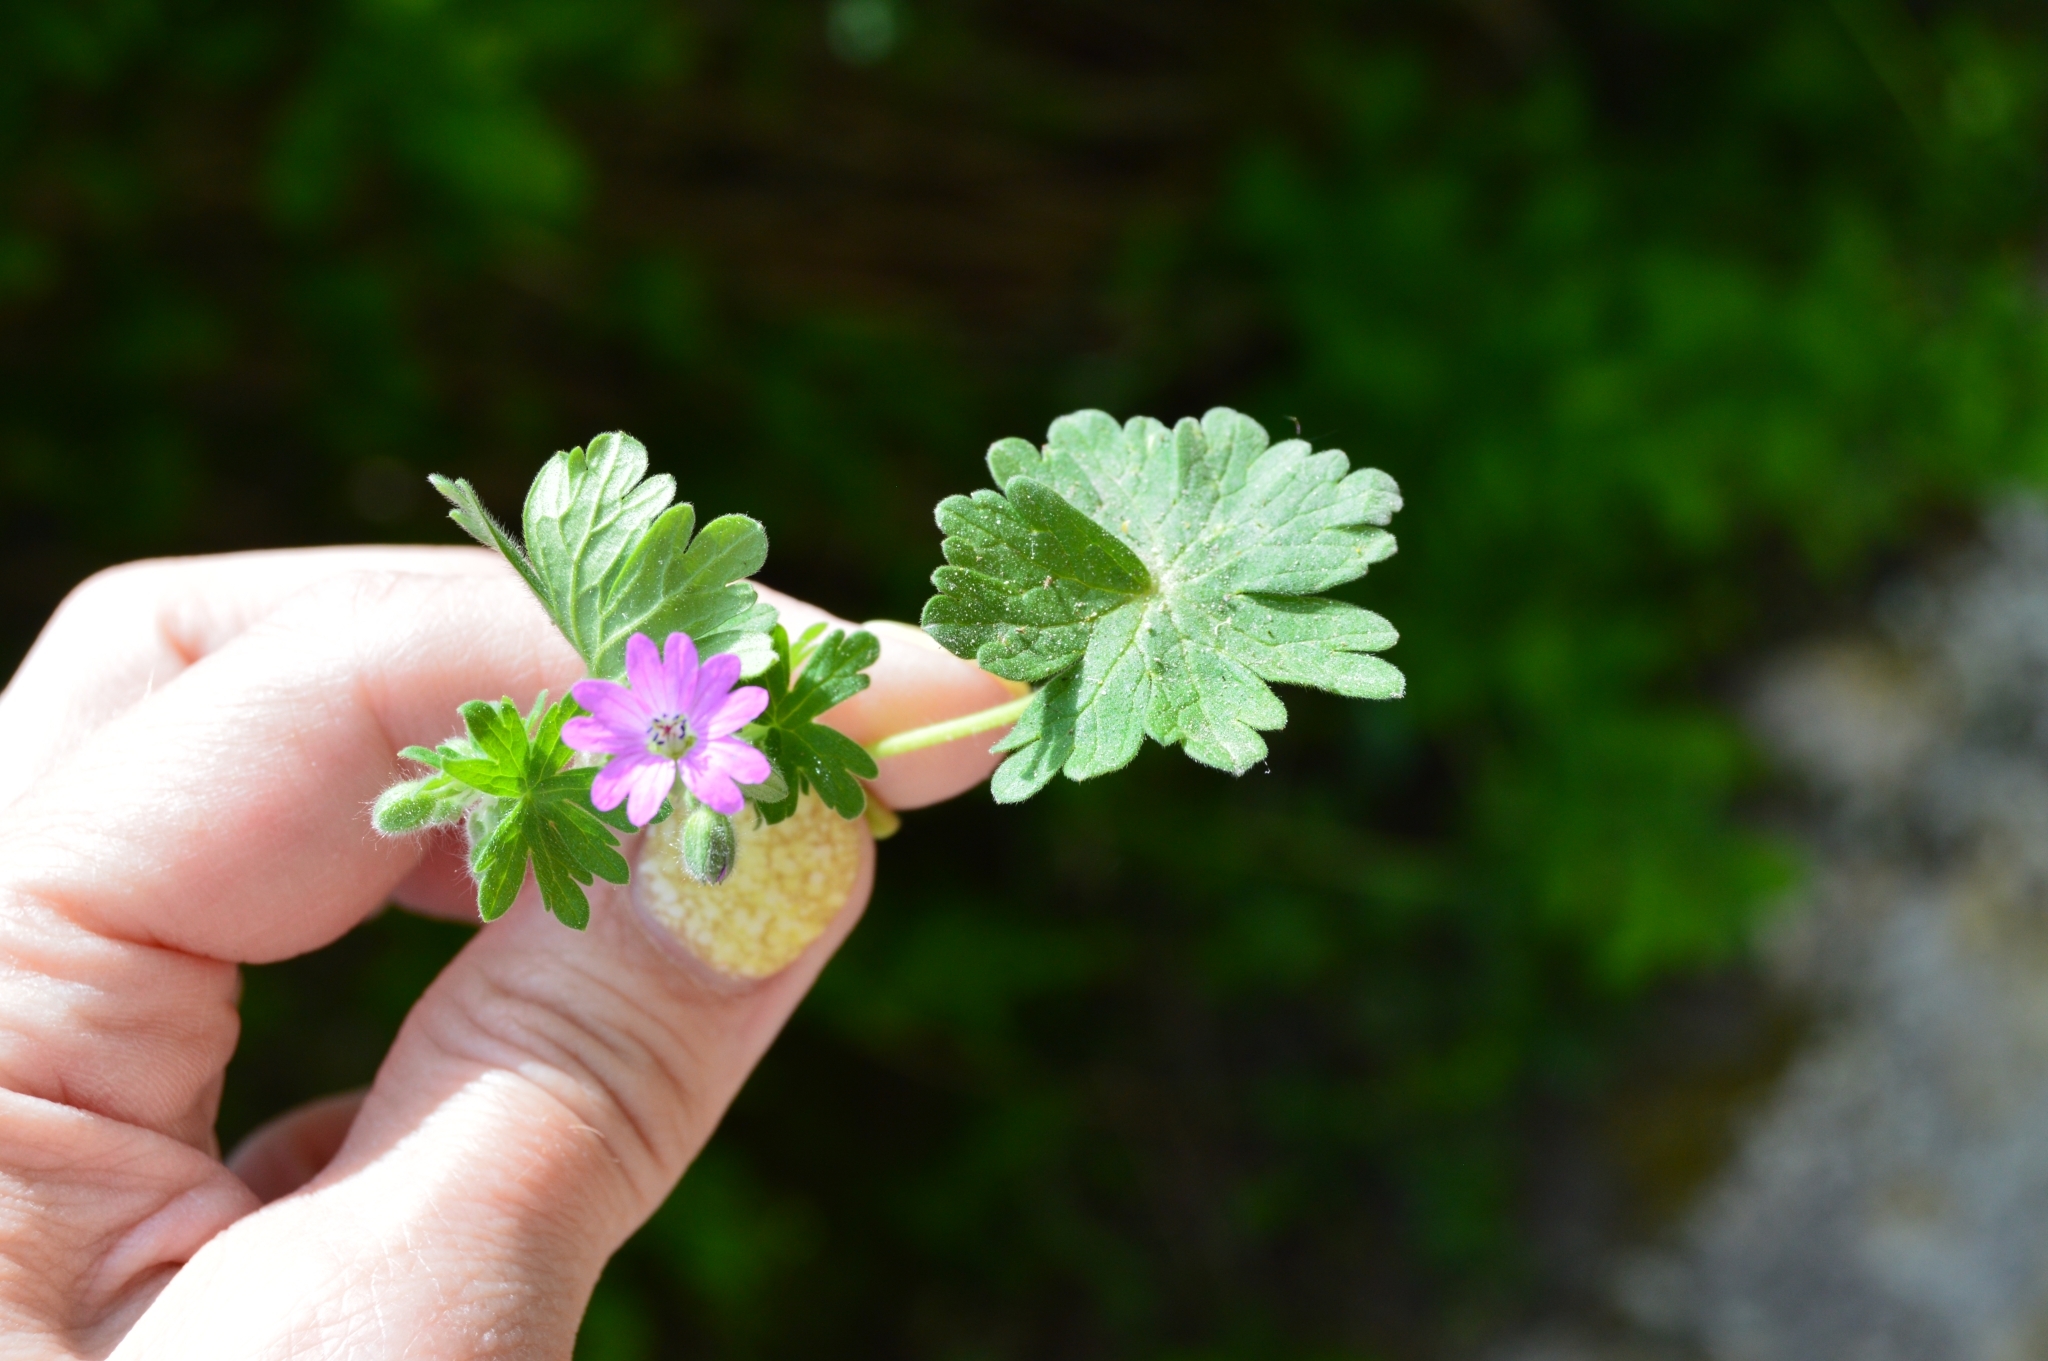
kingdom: Plantae
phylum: Tracheophyta
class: Magnoliopsida
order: Geraniales
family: Geraniaceae
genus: Geranium
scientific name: Geranium molle
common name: Dove's-foot crane's-bill
